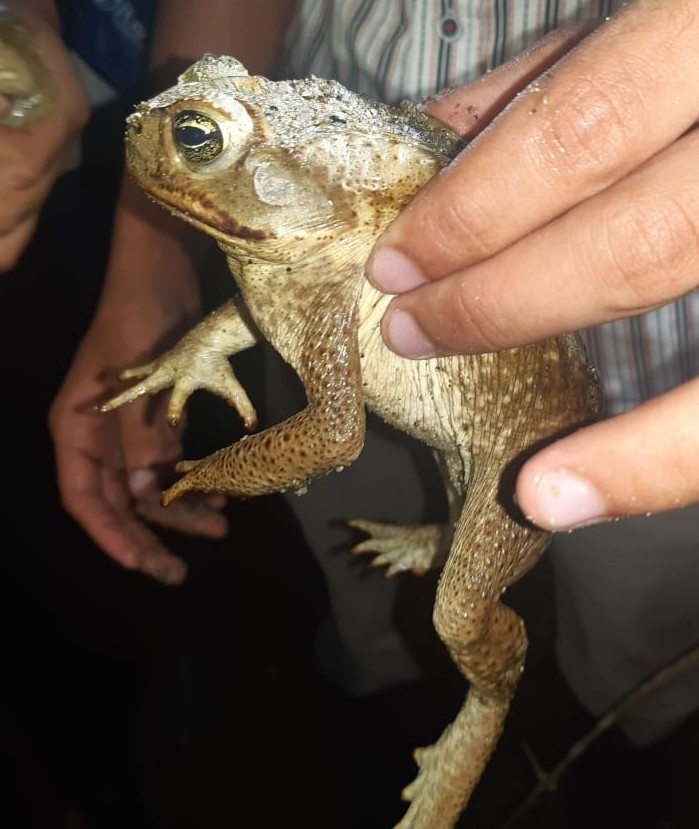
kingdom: Animalia
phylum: Chordata
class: Amphibia
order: Anura
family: Bufonidae
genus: Rhinella
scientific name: Rhinella horribilis
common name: Mesoamerican cane toad
